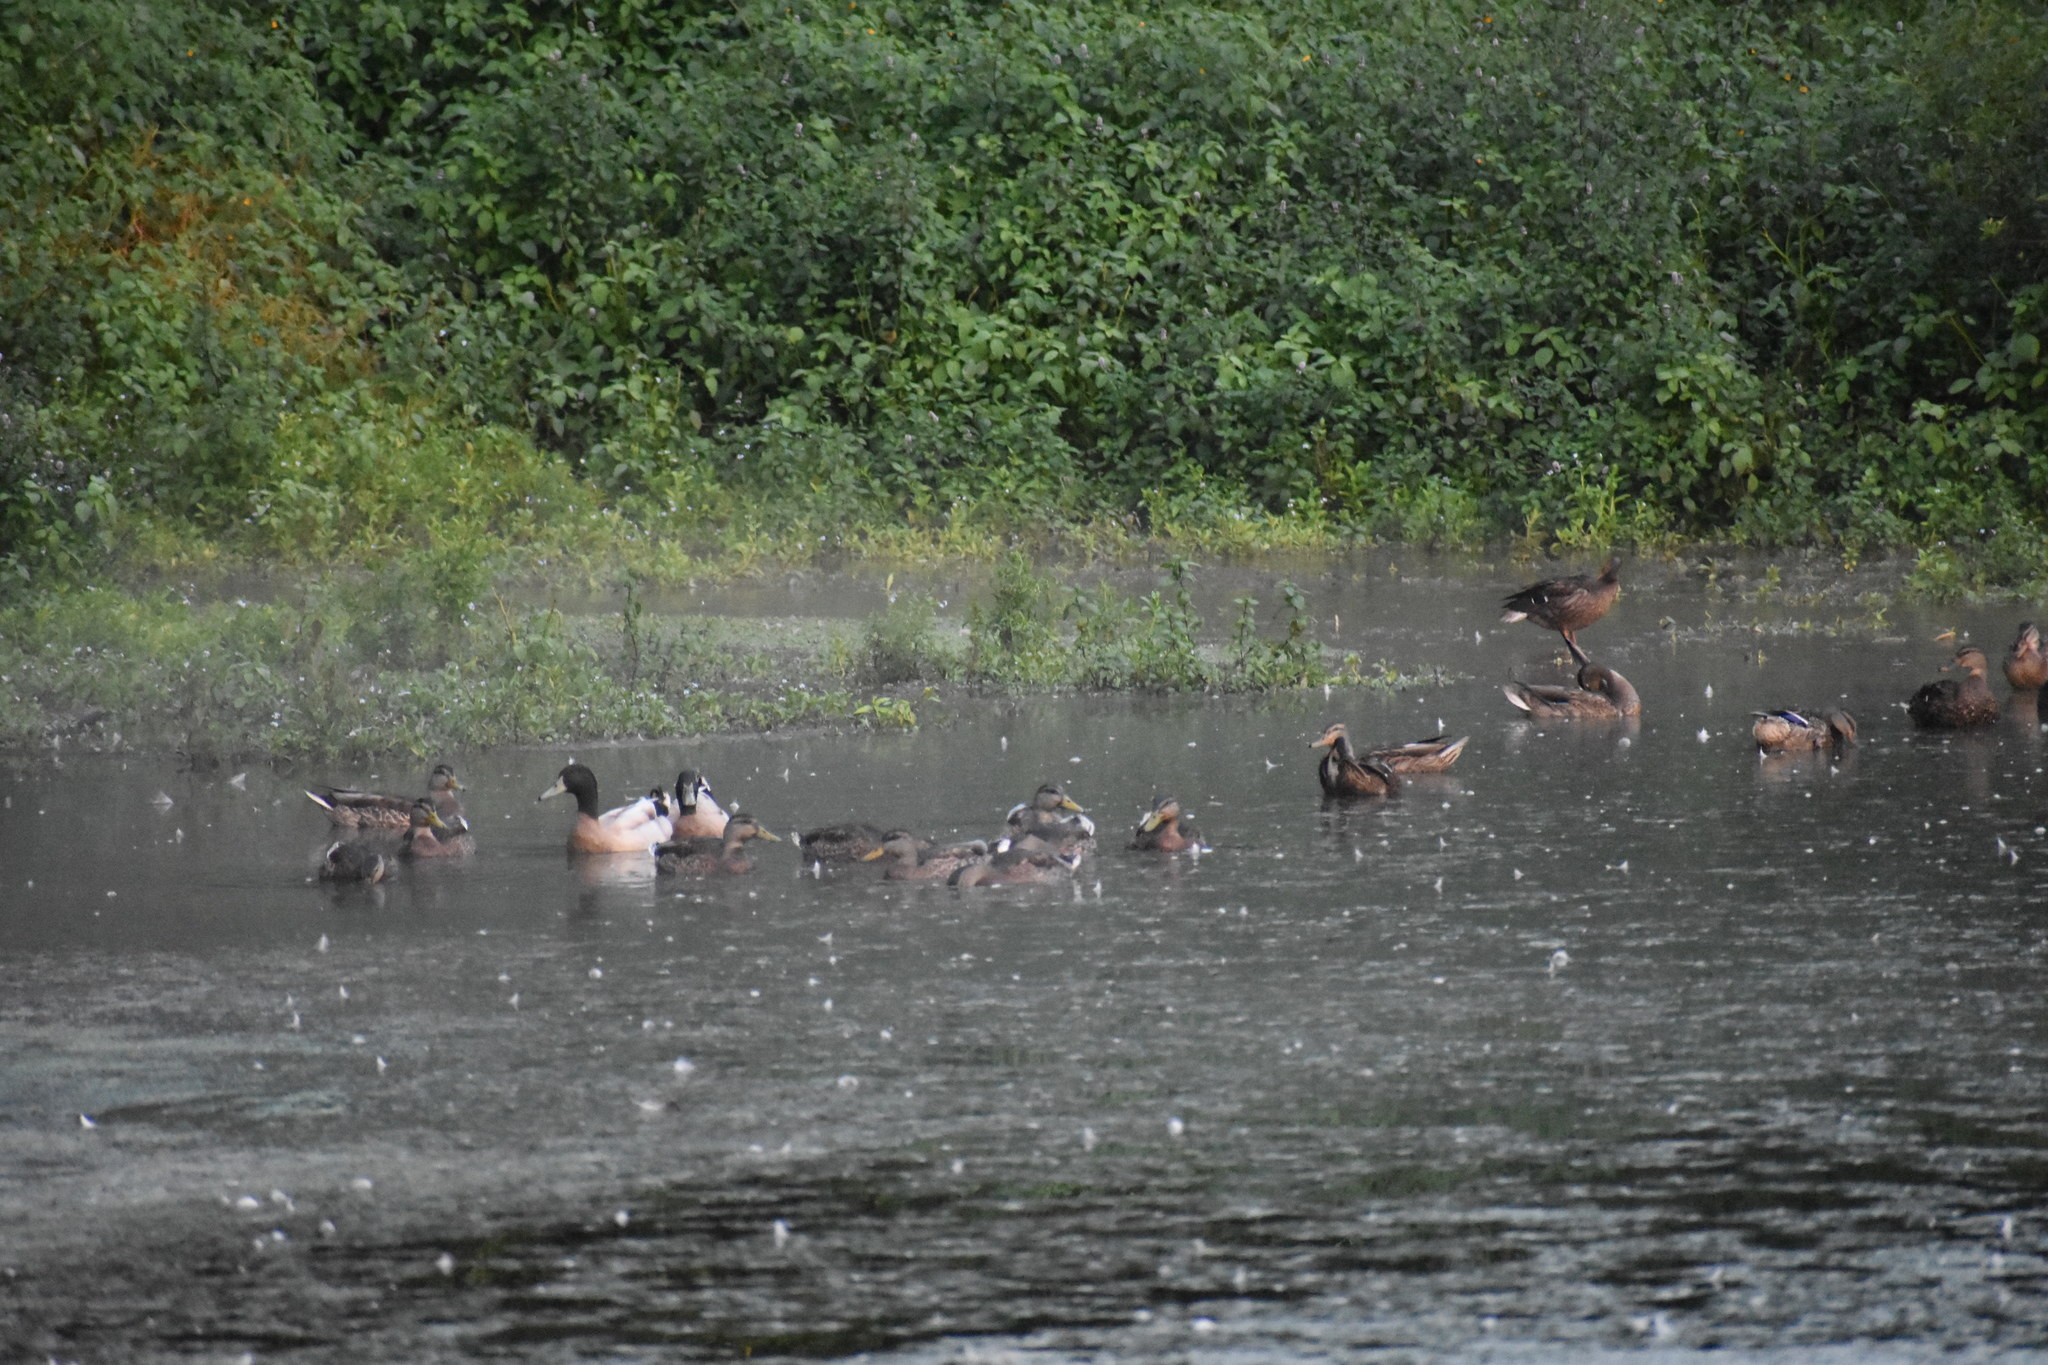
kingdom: Animalia
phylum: Chordata
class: Aves
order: Anseriformes
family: Anatidae
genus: Anas
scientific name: Anas platyrhynchos
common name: Mallard
